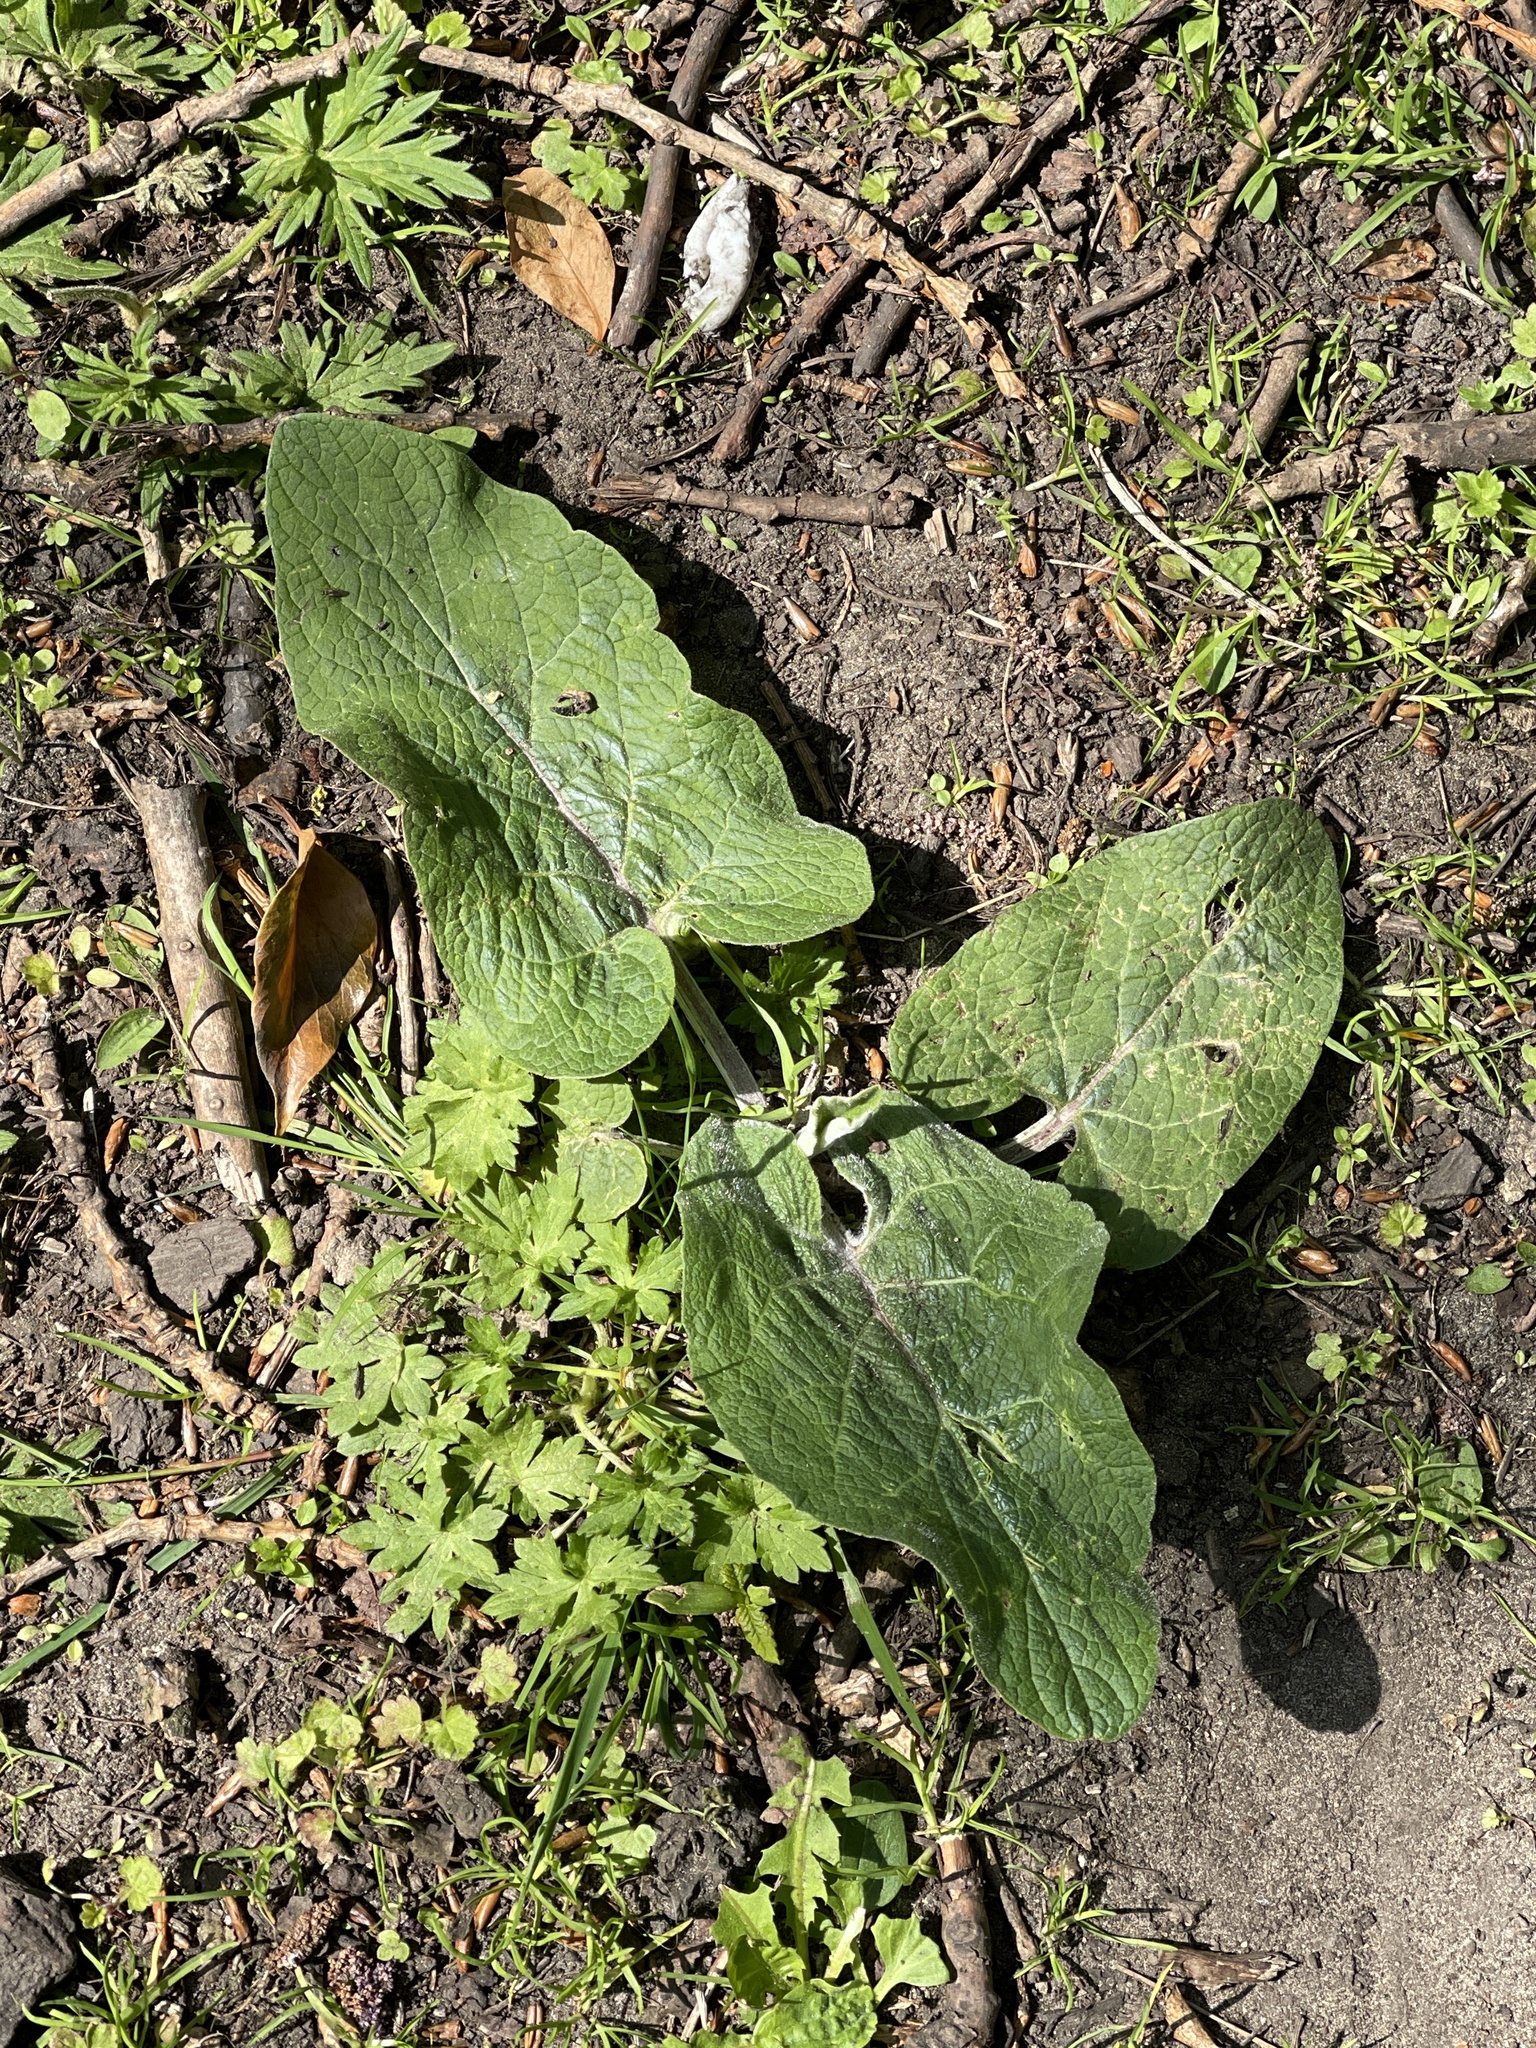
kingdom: Plantae
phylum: Tracheophyta
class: Magnoliopsida
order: Asterales
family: Asteraceae
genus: Arctium
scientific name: Arctium minus
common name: Lesser burdock
